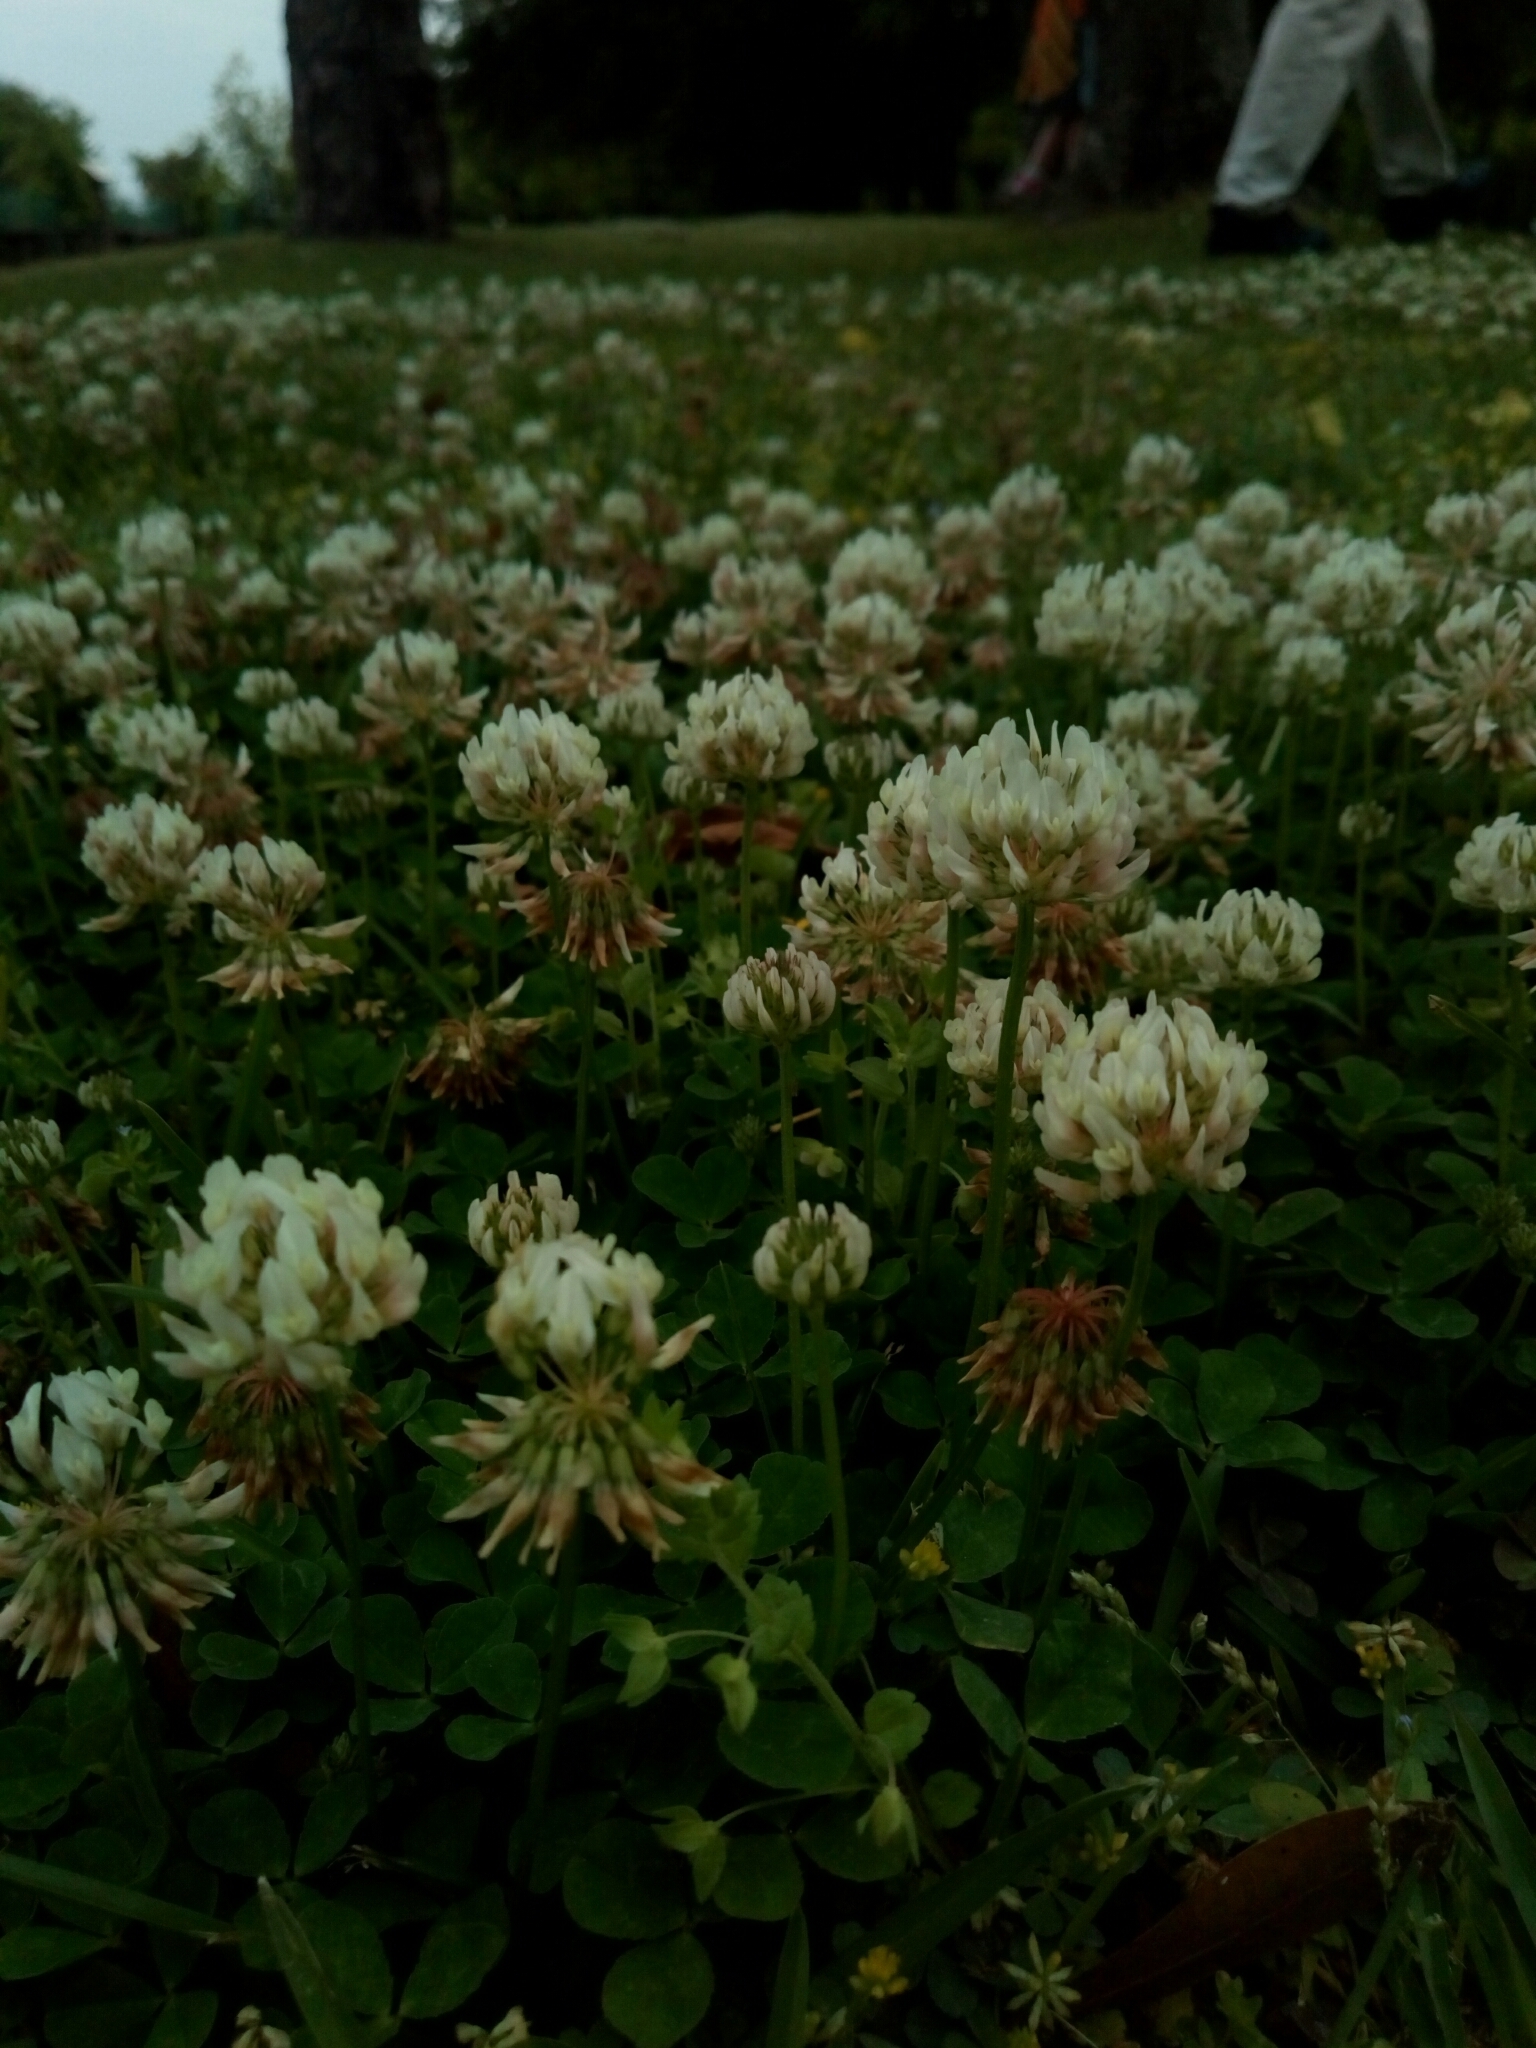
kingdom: Plantae
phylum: Tracheophyta
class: Magnoliopsida
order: Fabales
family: Fabaceae
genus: Trifolium
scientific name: Trifolium repens
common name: White clover
